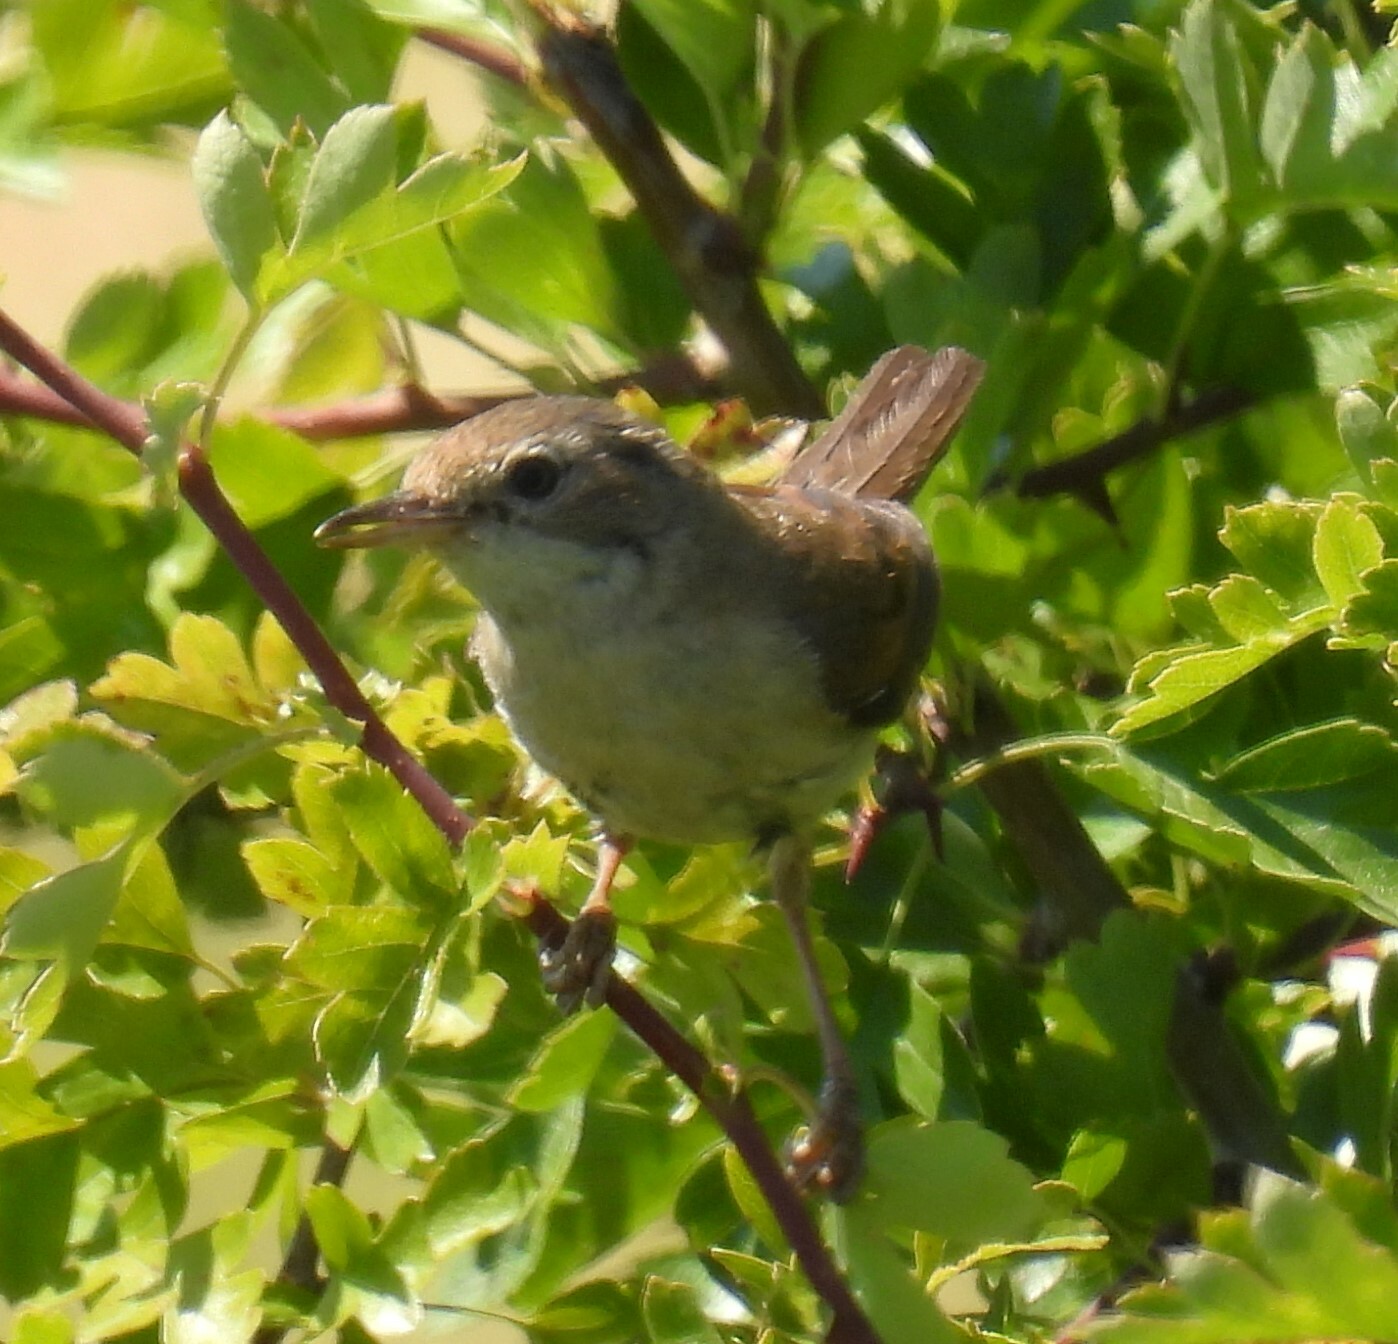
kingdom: Animalia
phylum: Chordata
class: Aves
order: Passeriformes
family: Sylviidae
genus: Sylvia
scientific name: Sylvia communis
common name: Common whitethroat
